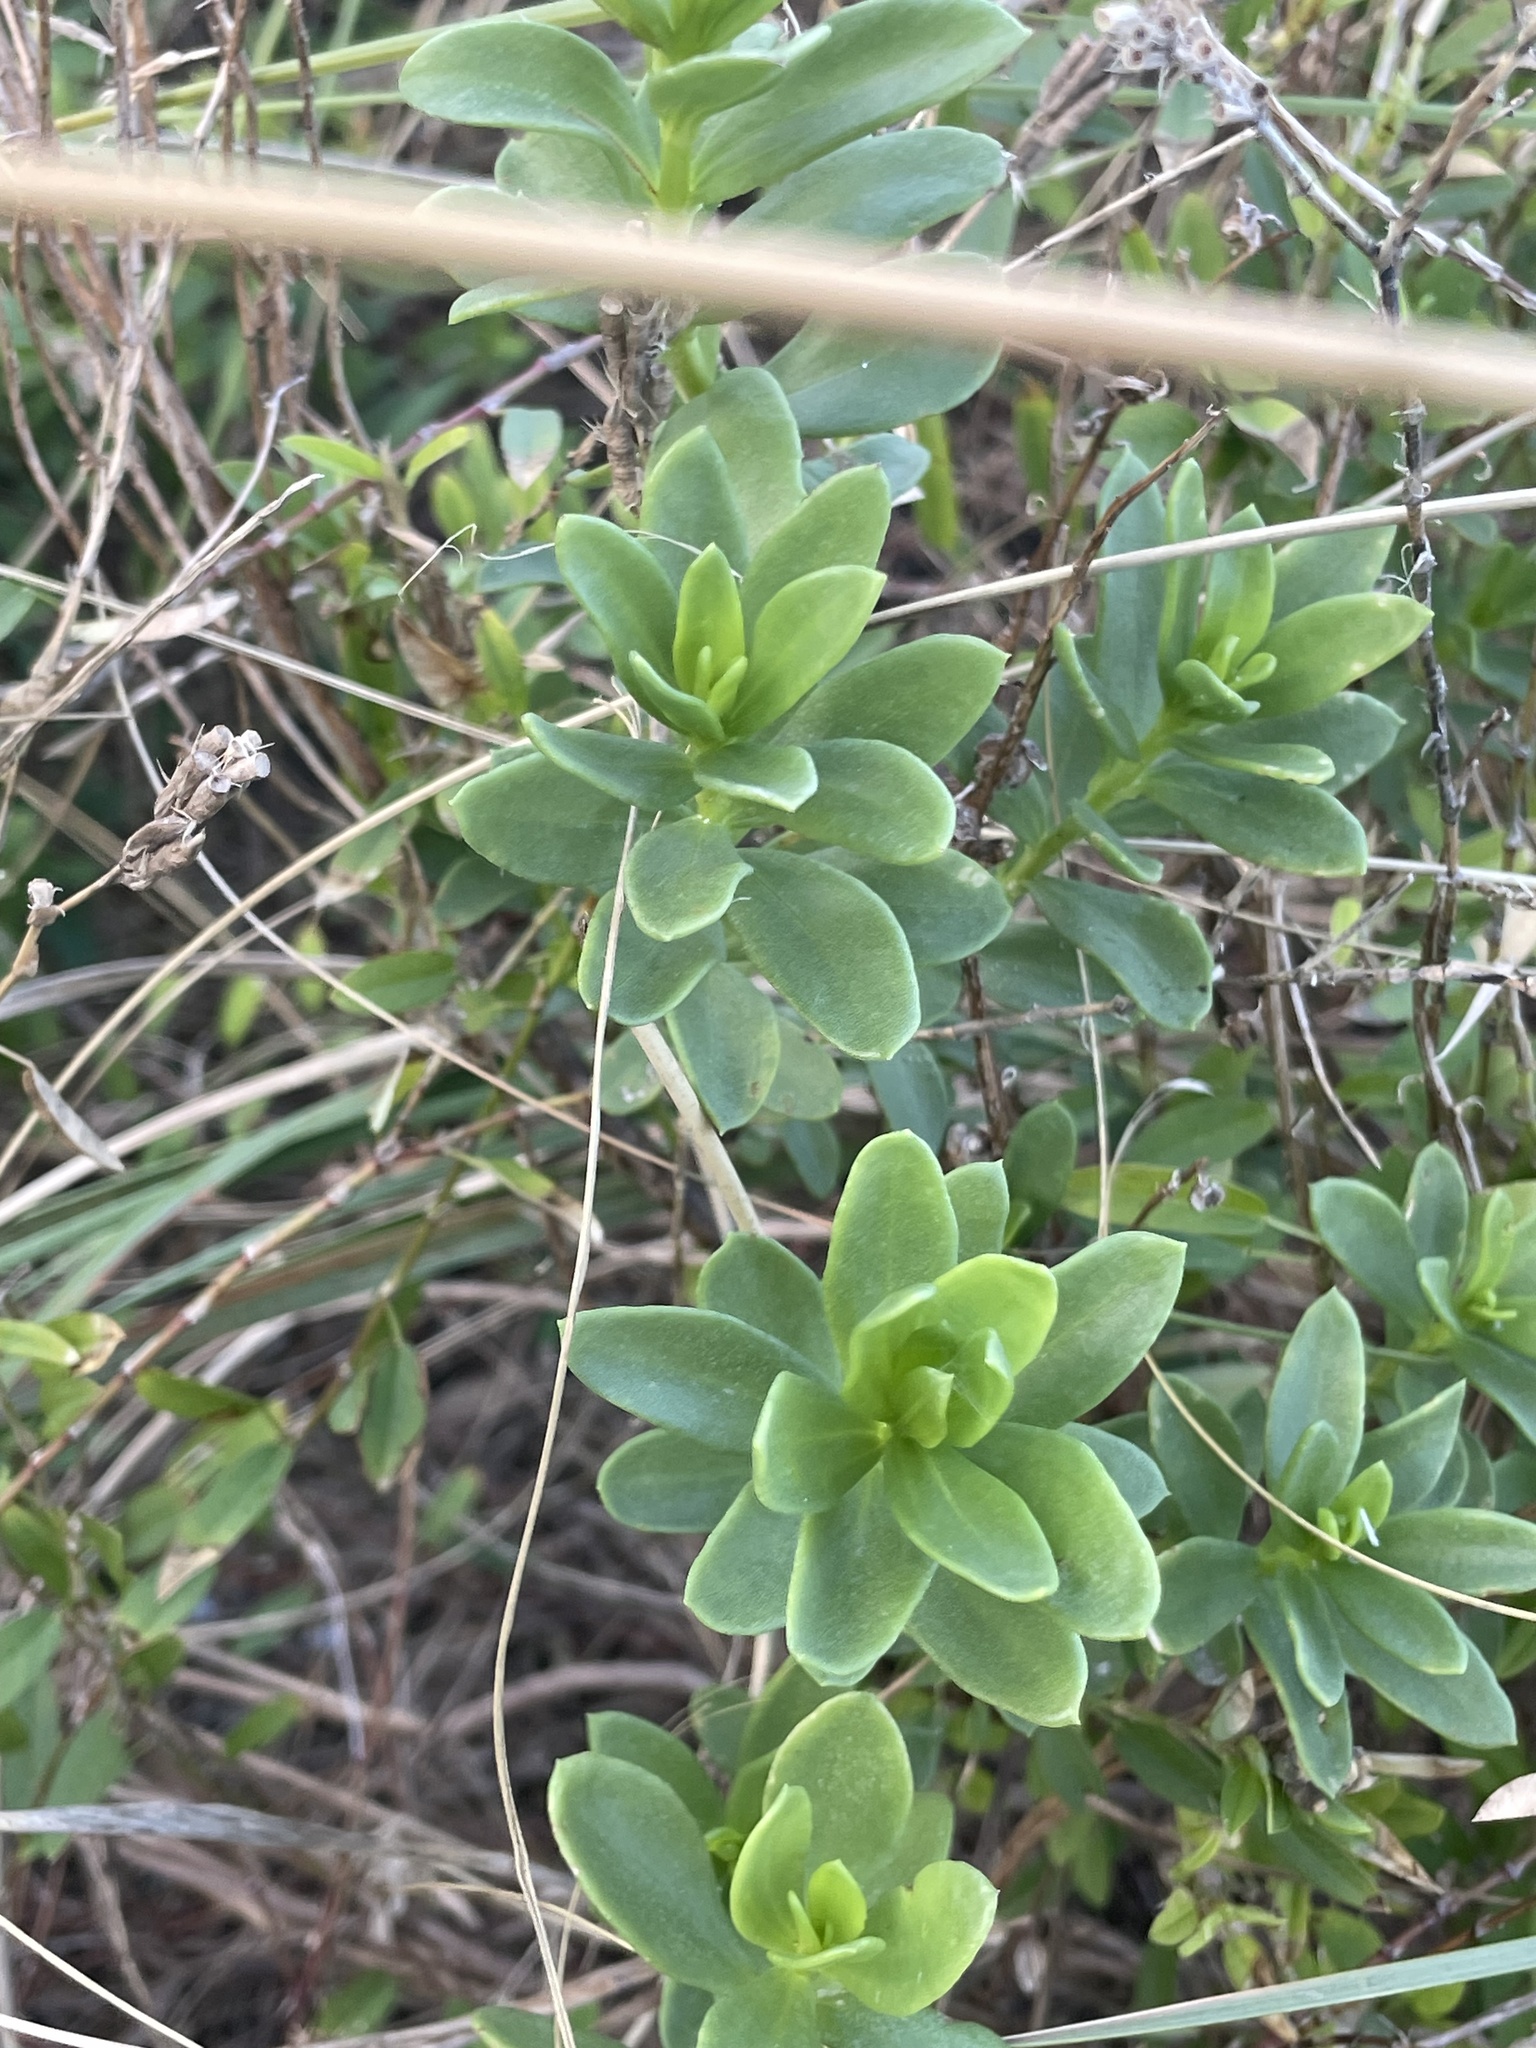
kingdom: Plantae
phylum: Tracheophyta
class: Magnoliopsida
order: Asterales
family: Asteraceae
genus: Iva
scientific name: Iva imbricata
